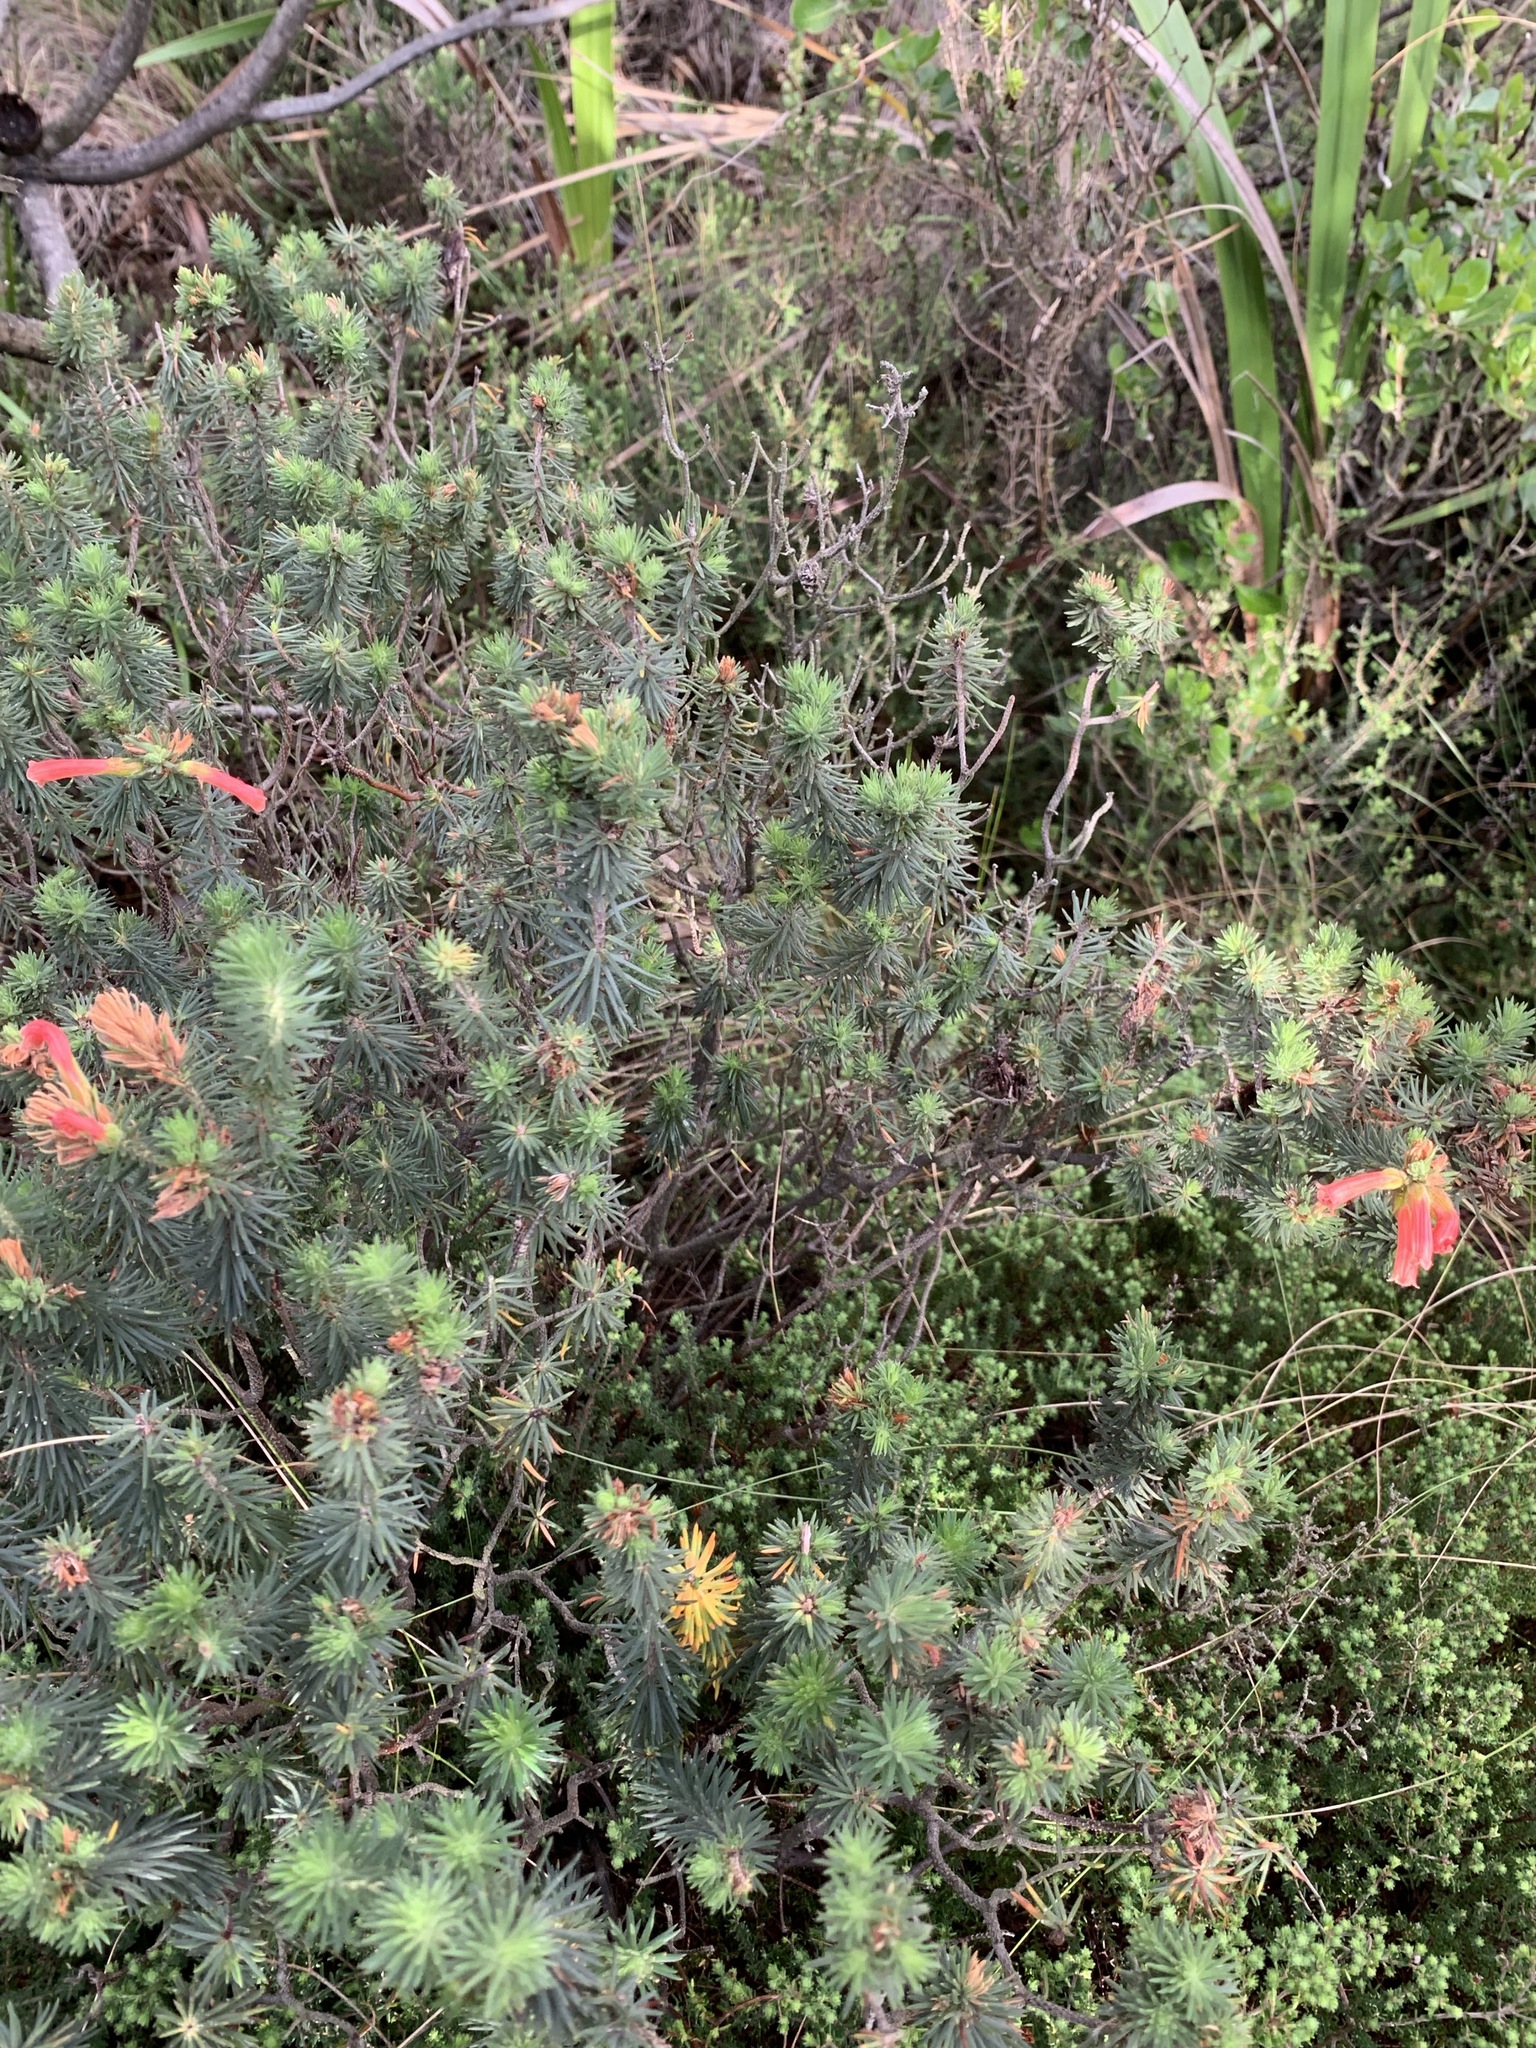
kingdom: Plantae
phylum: Tracheophyta
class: Magnoliopsida
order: Ericales
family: Ericaceae
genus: Erica
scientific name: Erica abietina
